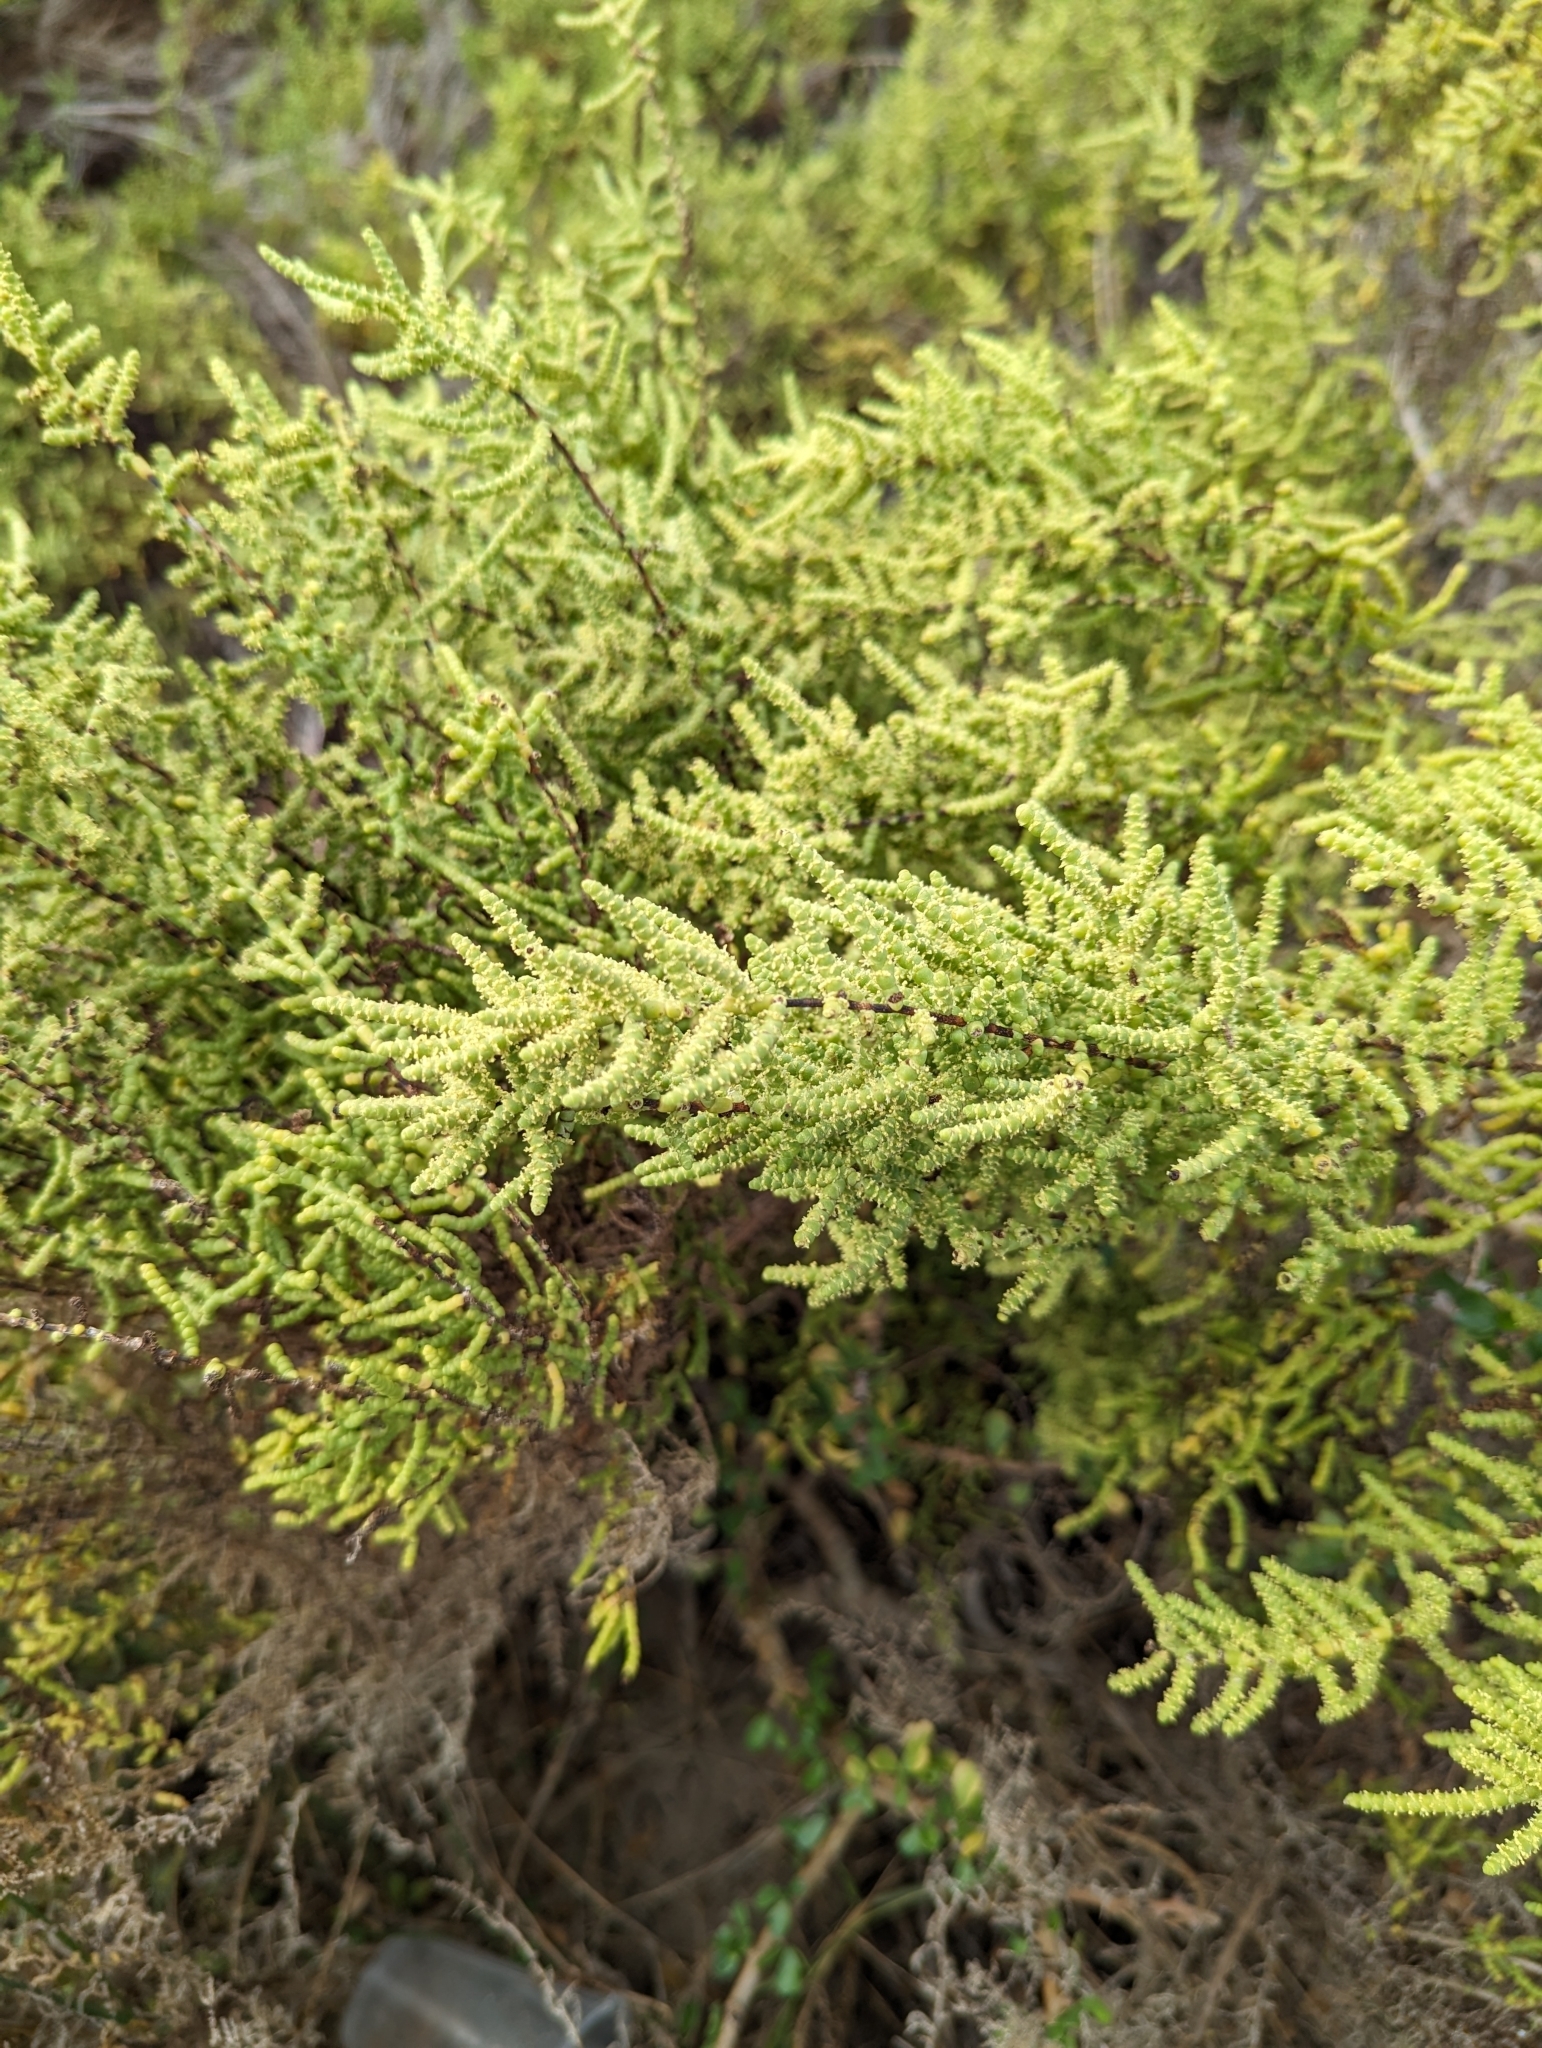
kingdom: Plantae
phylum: Tracheophyta
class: Magnoliopsida
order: Caryophyllales
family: Amaranthaceae
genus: Allenrolfea
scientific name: Allenrolfea occidentalis
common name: Iodine-bush
